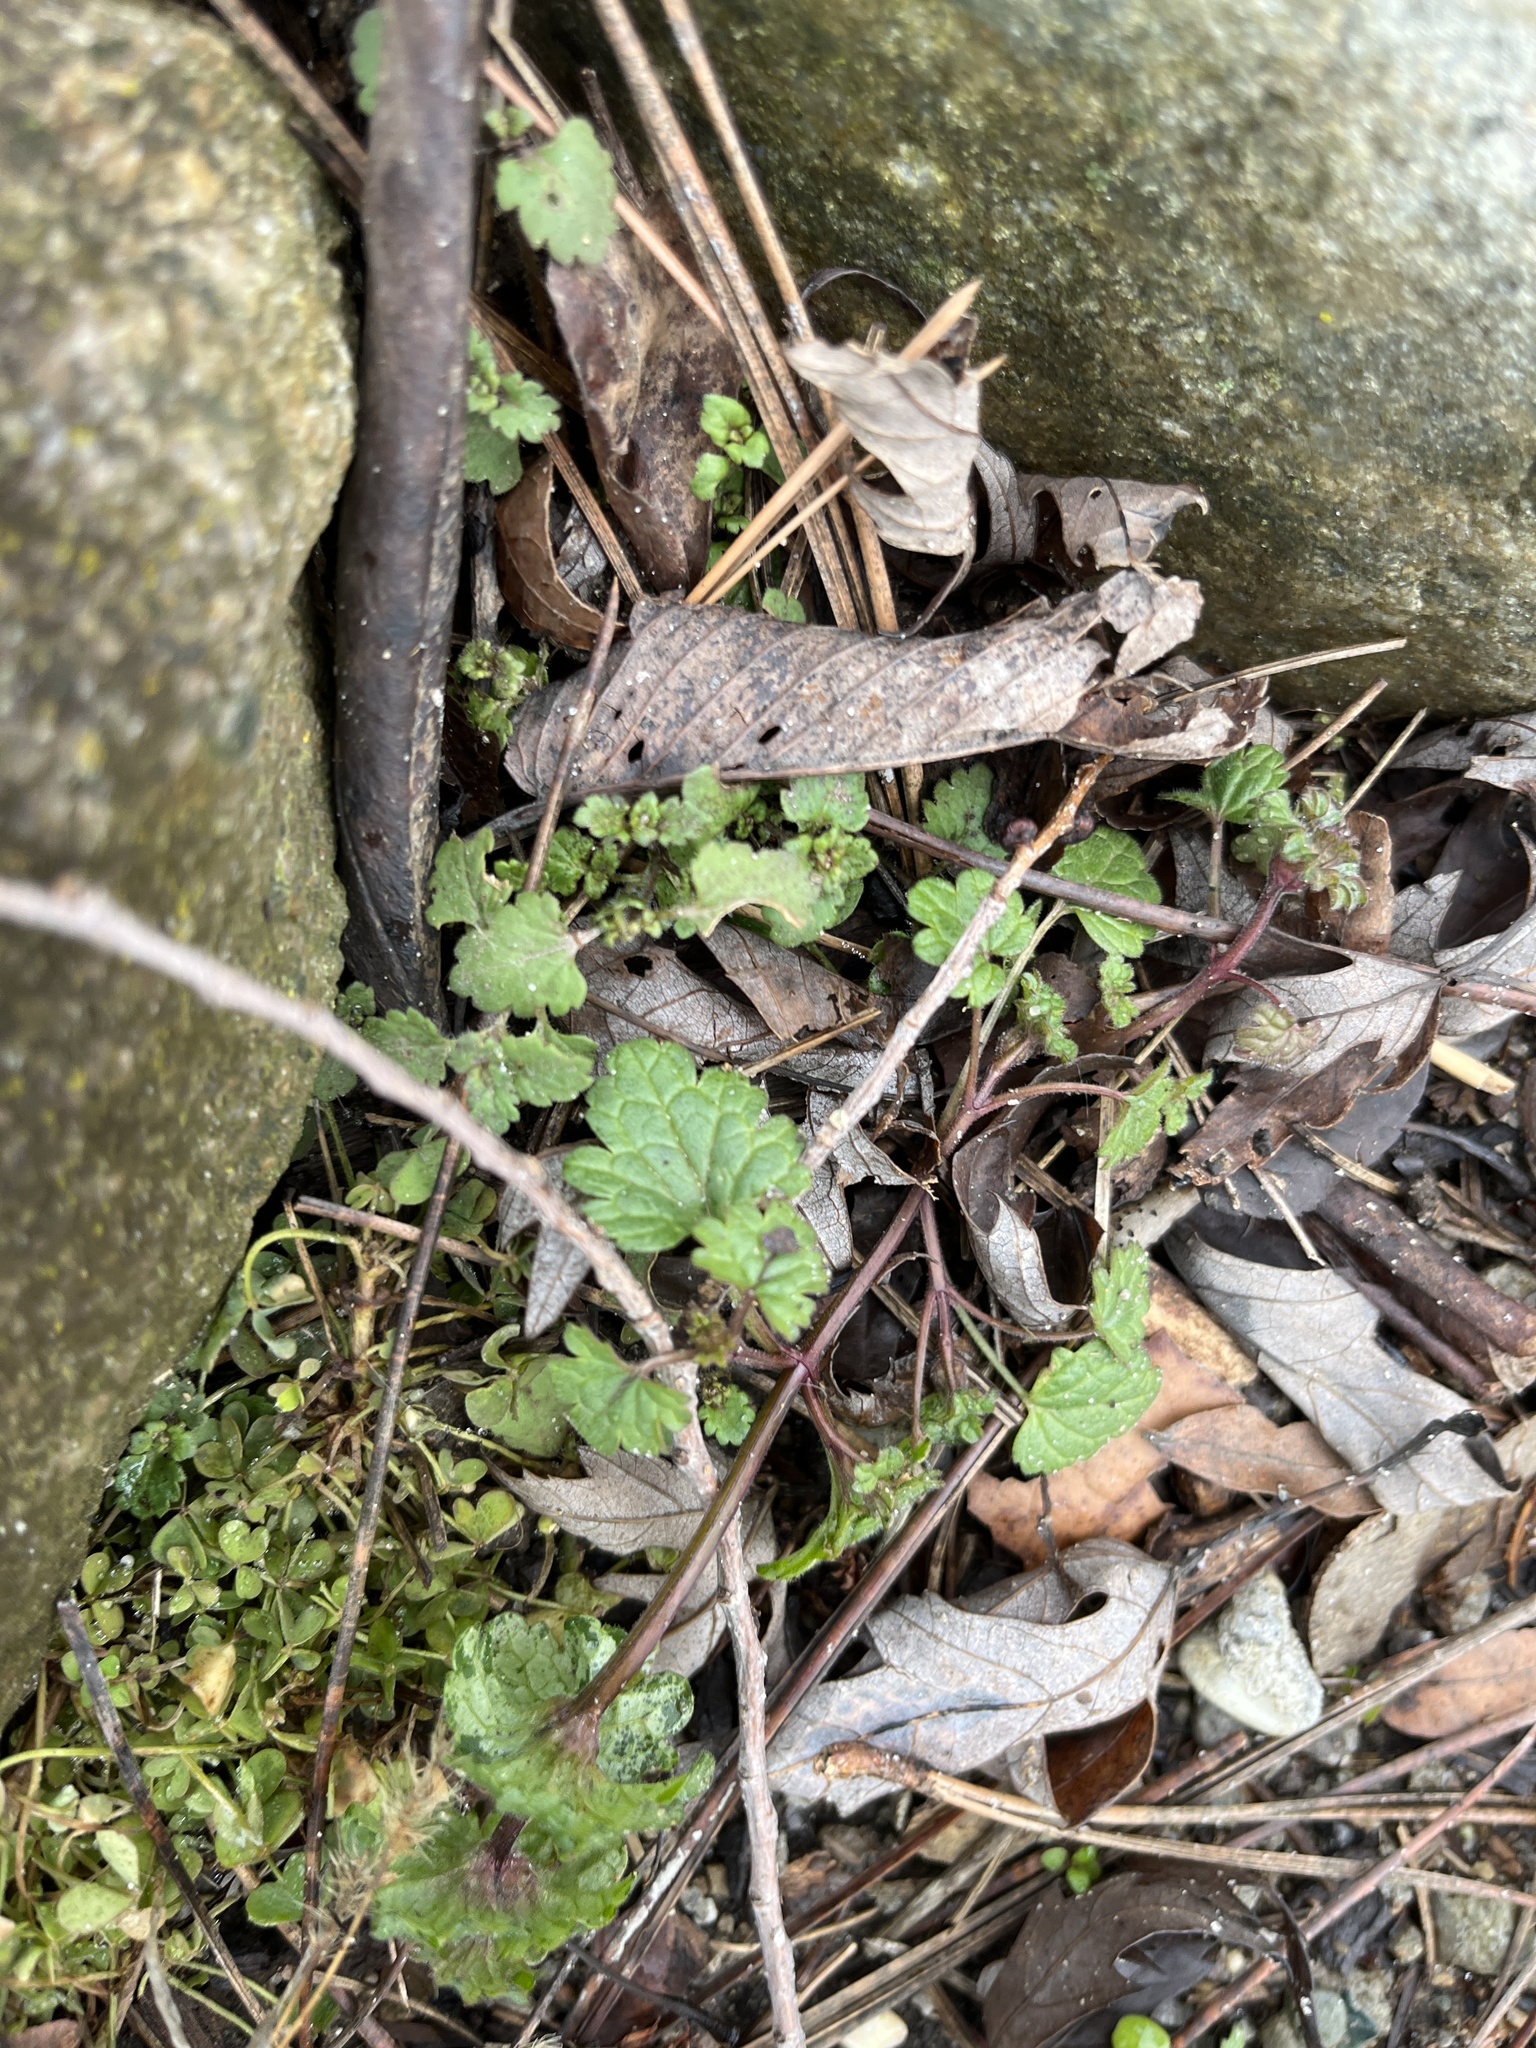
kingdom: Plantae
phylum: Tracheophyta
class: Magnoliopsida
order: Lamiales
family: Lamiaceae
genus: Lamium
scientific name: Lamium amplexicaule
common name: Henbit dead-nettle
